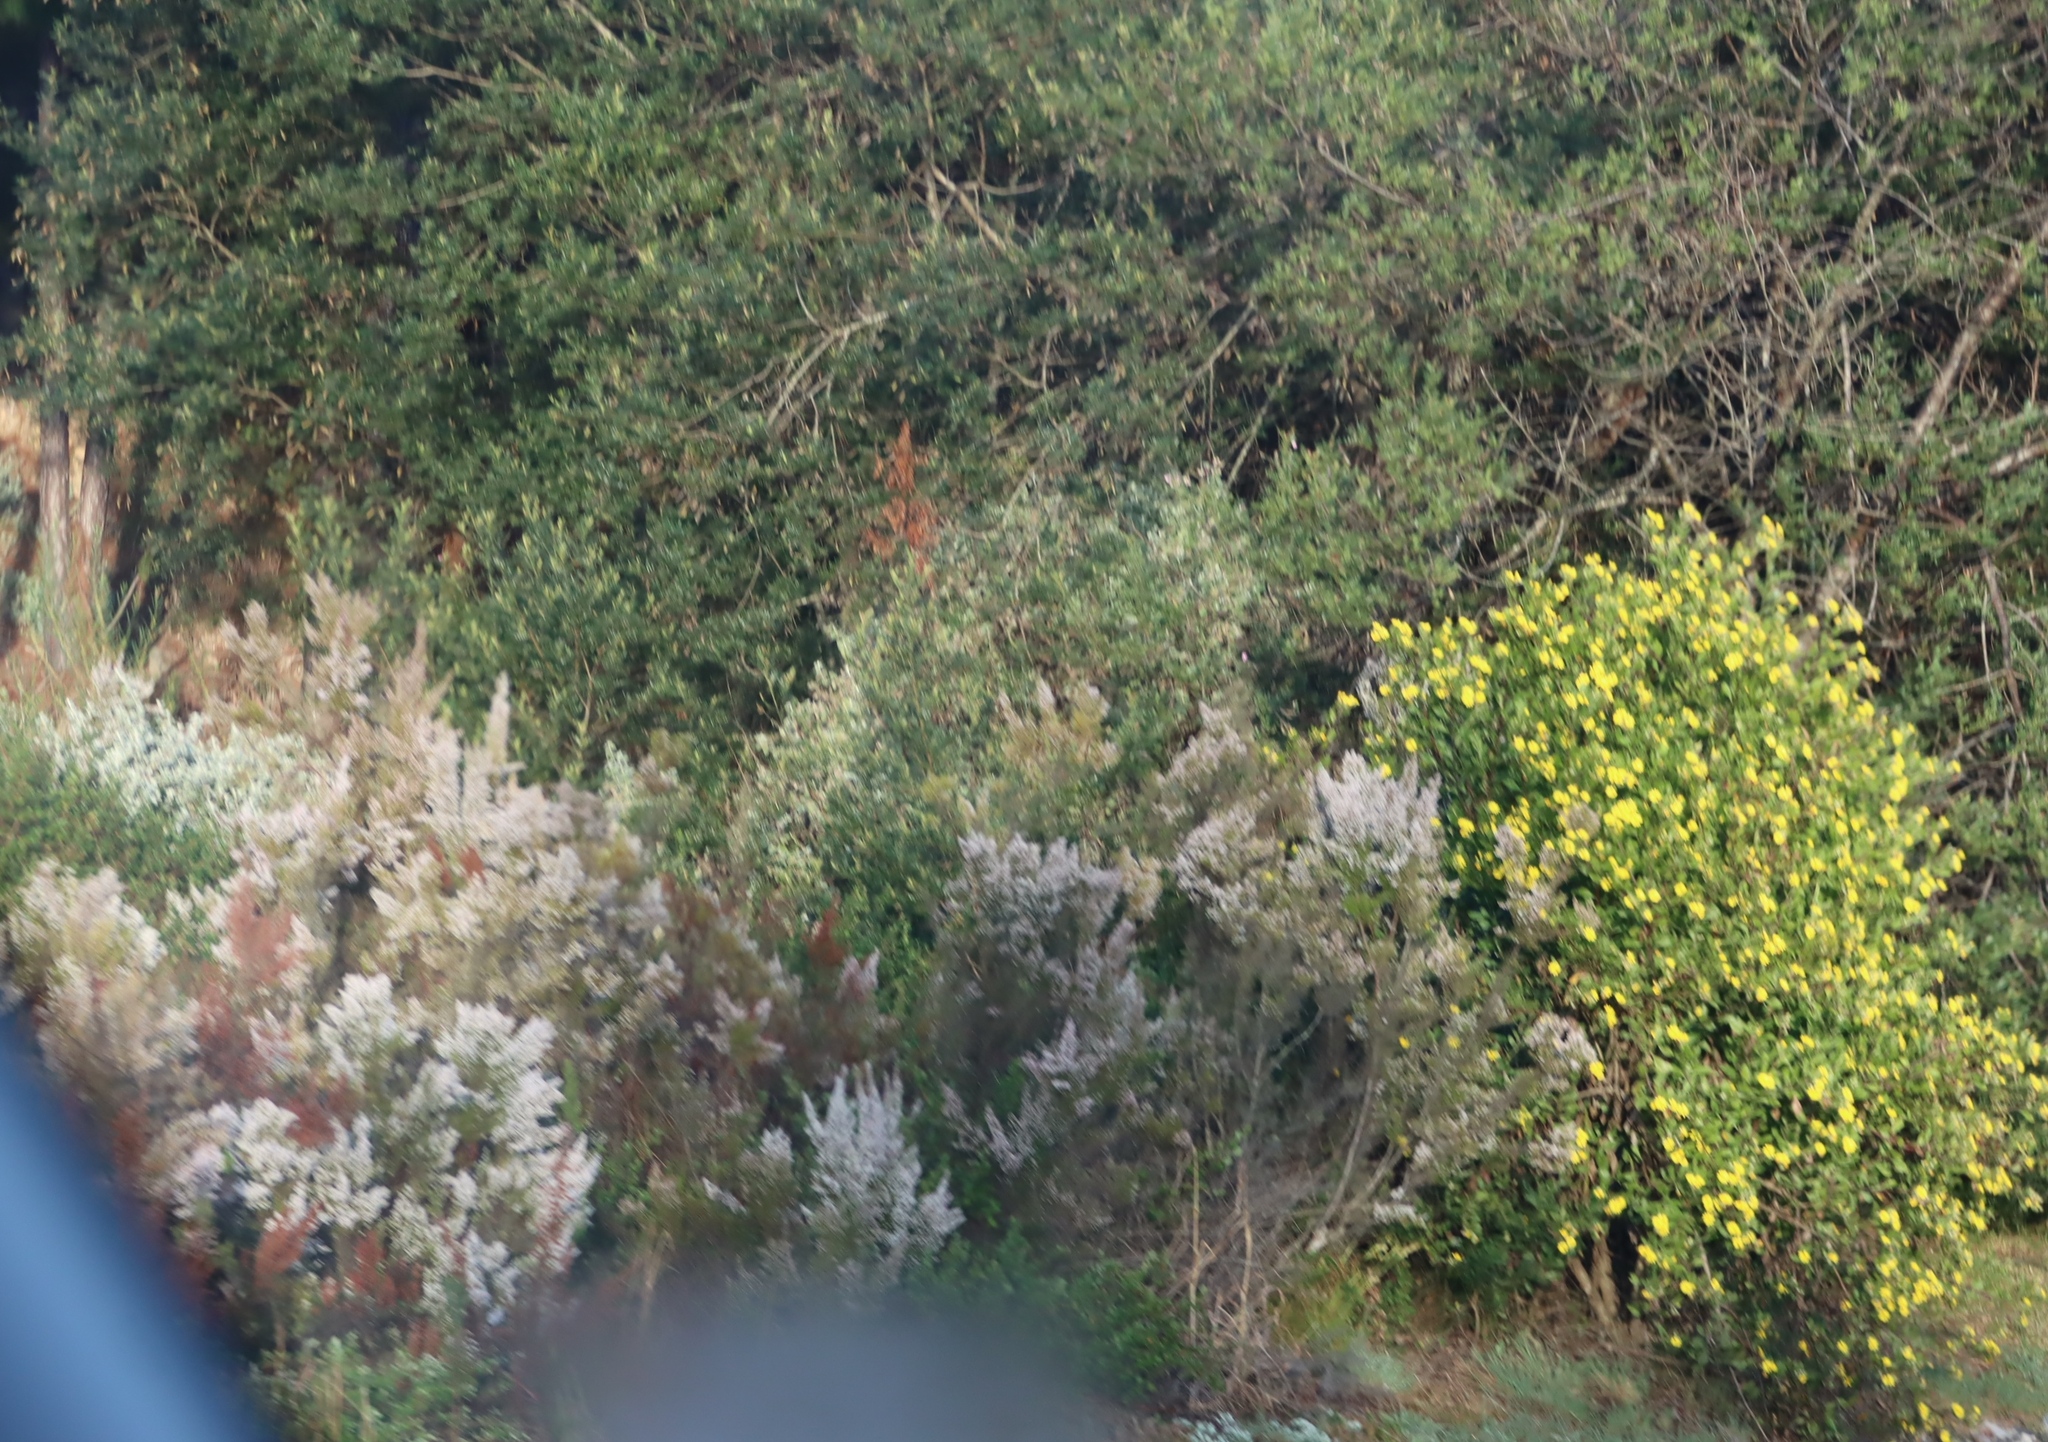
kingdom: Plantae
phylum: Tracheophyta
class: Magnoliopsida
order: Asterales
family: Asteraceae
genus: Osteospermum
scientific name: Osteospermum moniliferum
